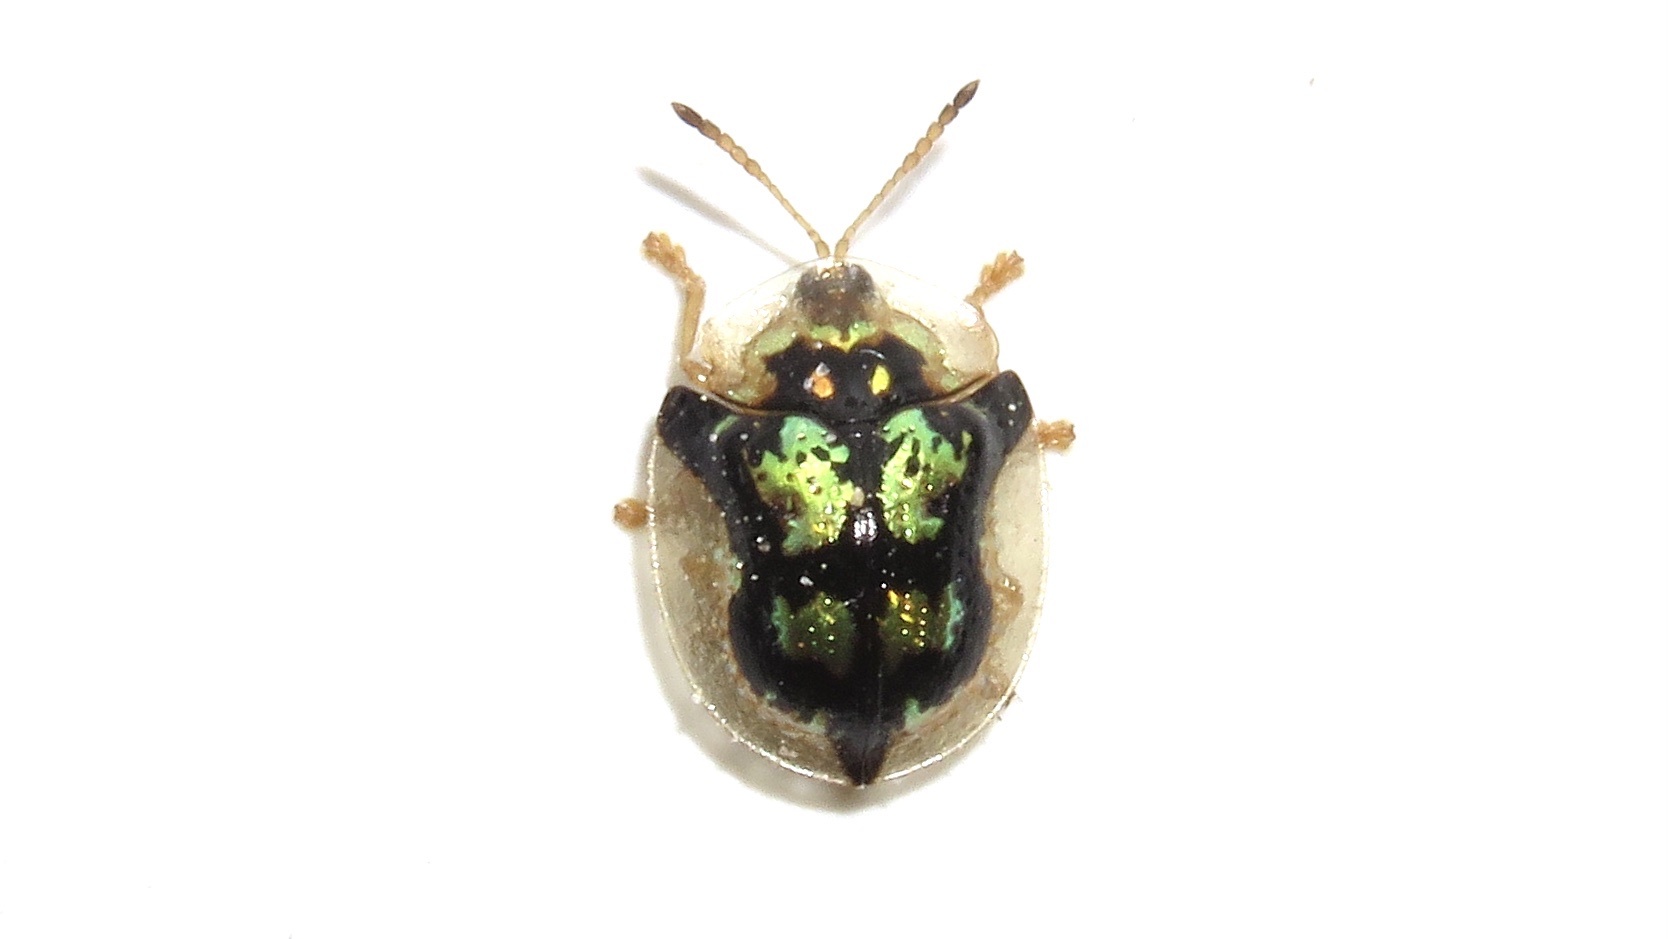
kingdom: Animalia
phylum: Arthropoda
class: Insecta
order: Coleoptera
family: Chrysomelidae
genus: Deloyala
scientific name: Deloyala guttata
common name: Mottled tortoise beetle
